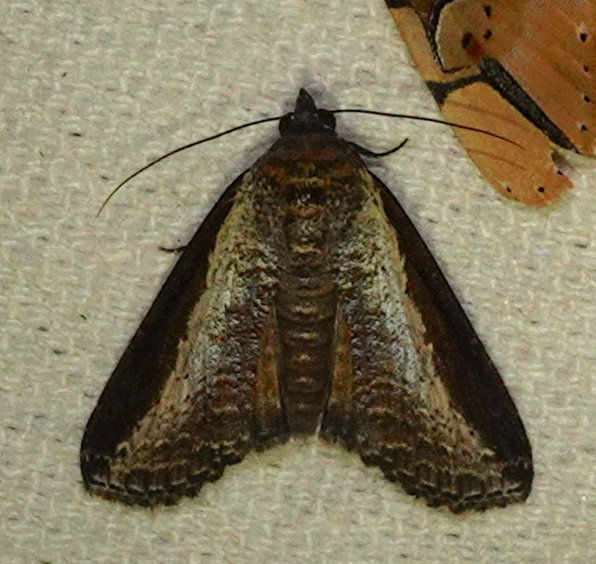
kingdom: Animalia
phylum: Arthropoda
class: Insecta
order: Lepidoptera
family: Euteliidae
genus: Lophoptera
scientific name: Lophoptera squammigera
